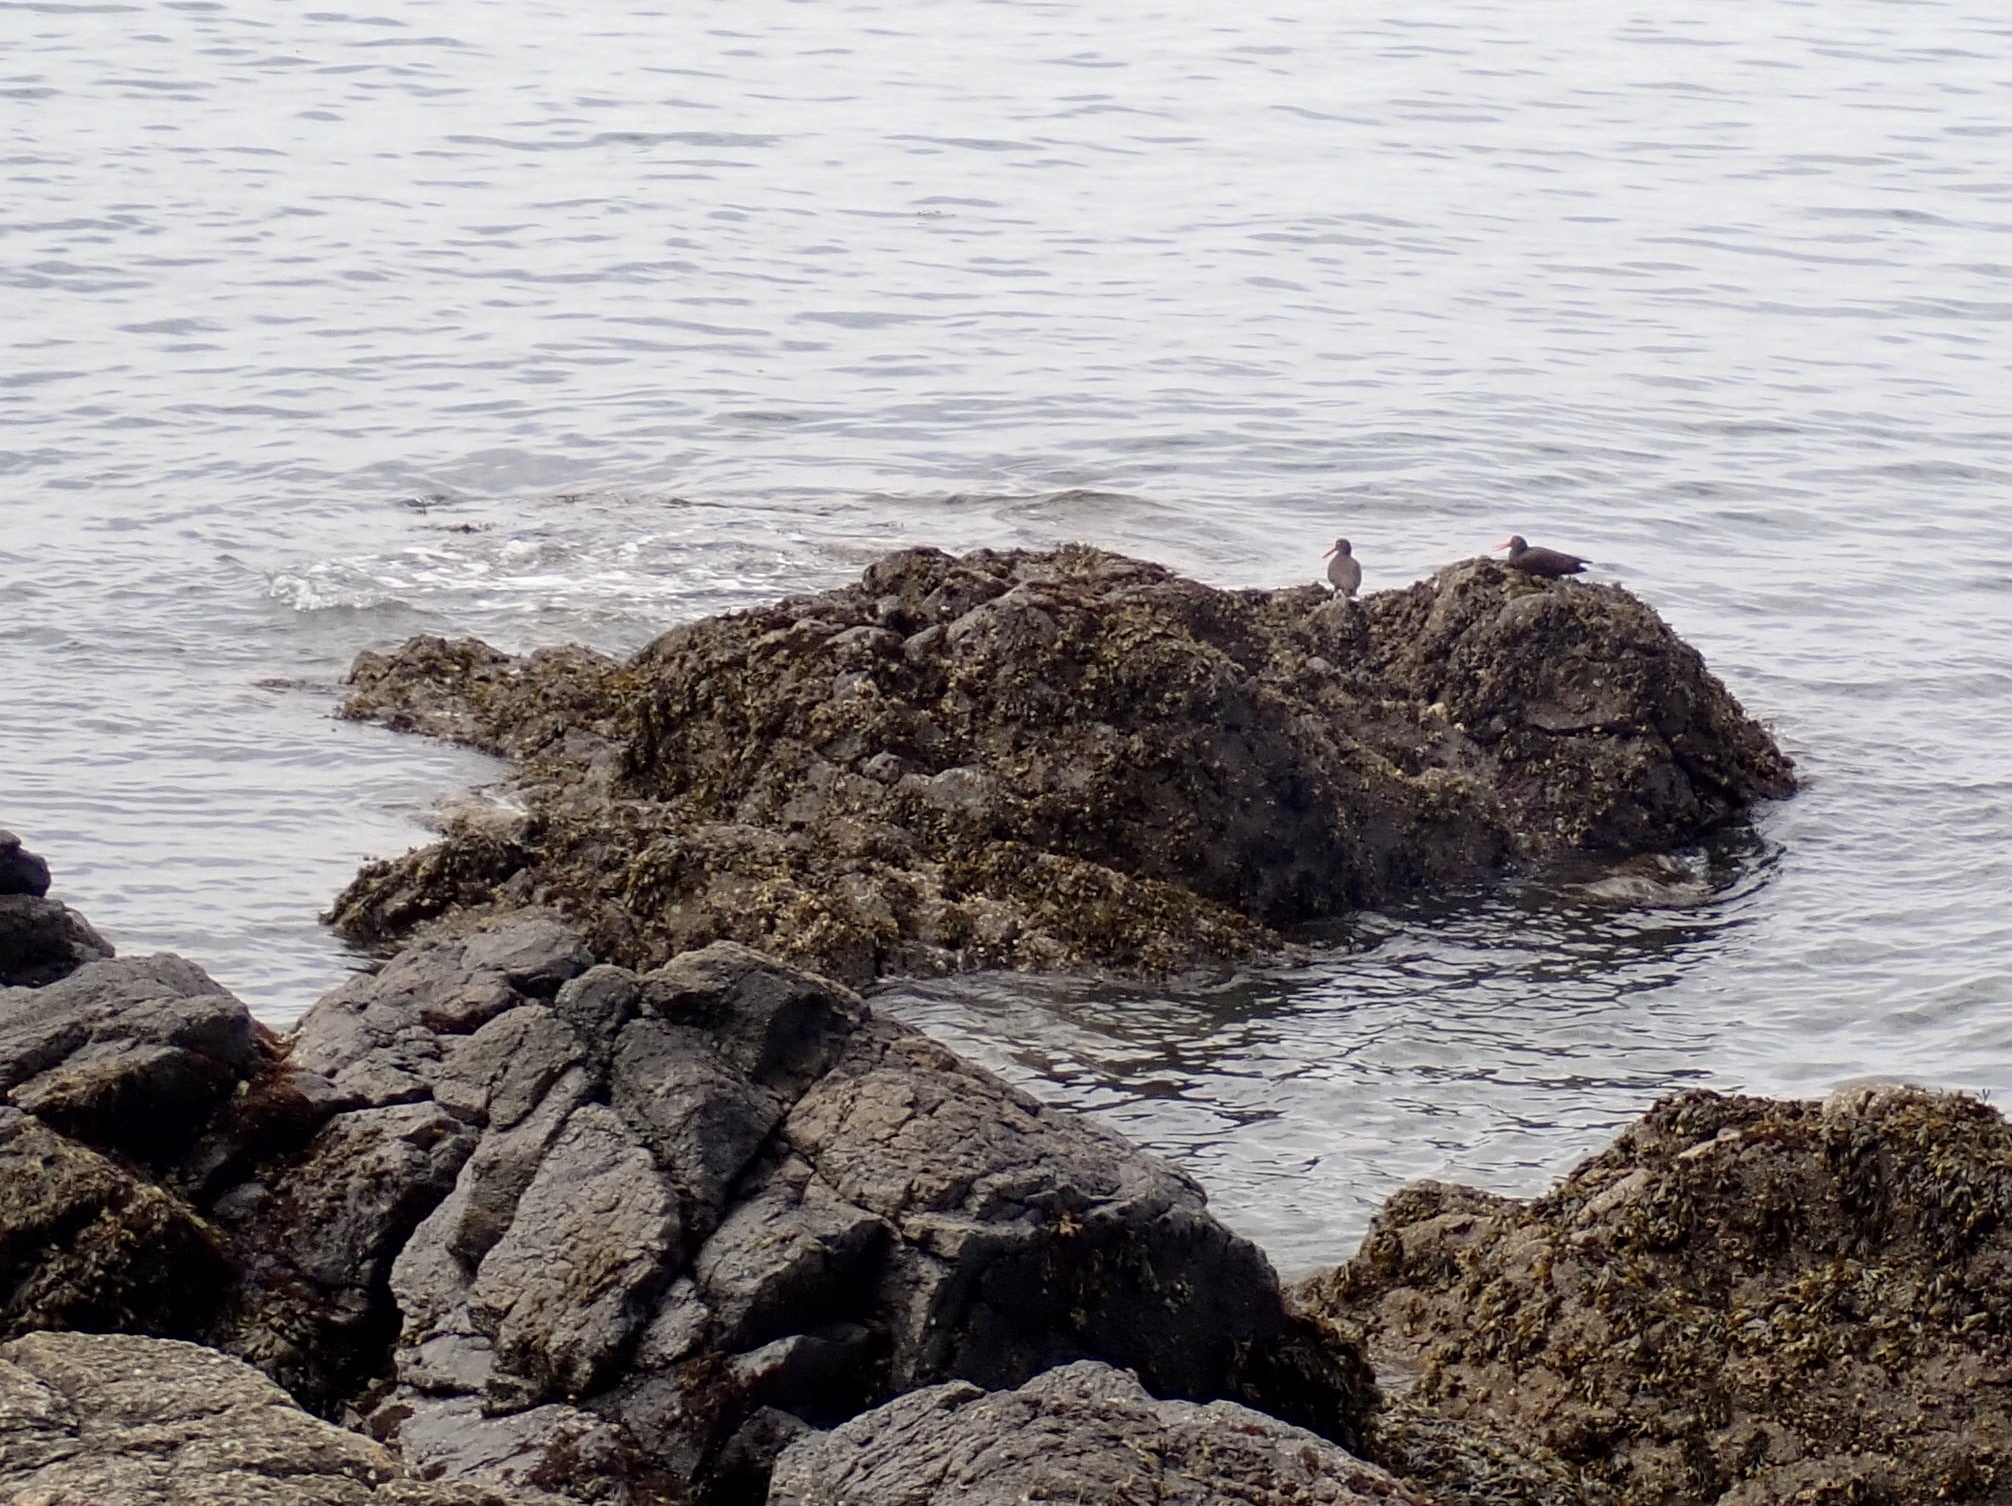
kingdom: Animalia
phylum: Chordata
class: Aves
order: Charadriiformes
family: Haematopodidae
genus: Haematopus
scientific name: Haematopus bachmani
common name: Black oystercatcher
